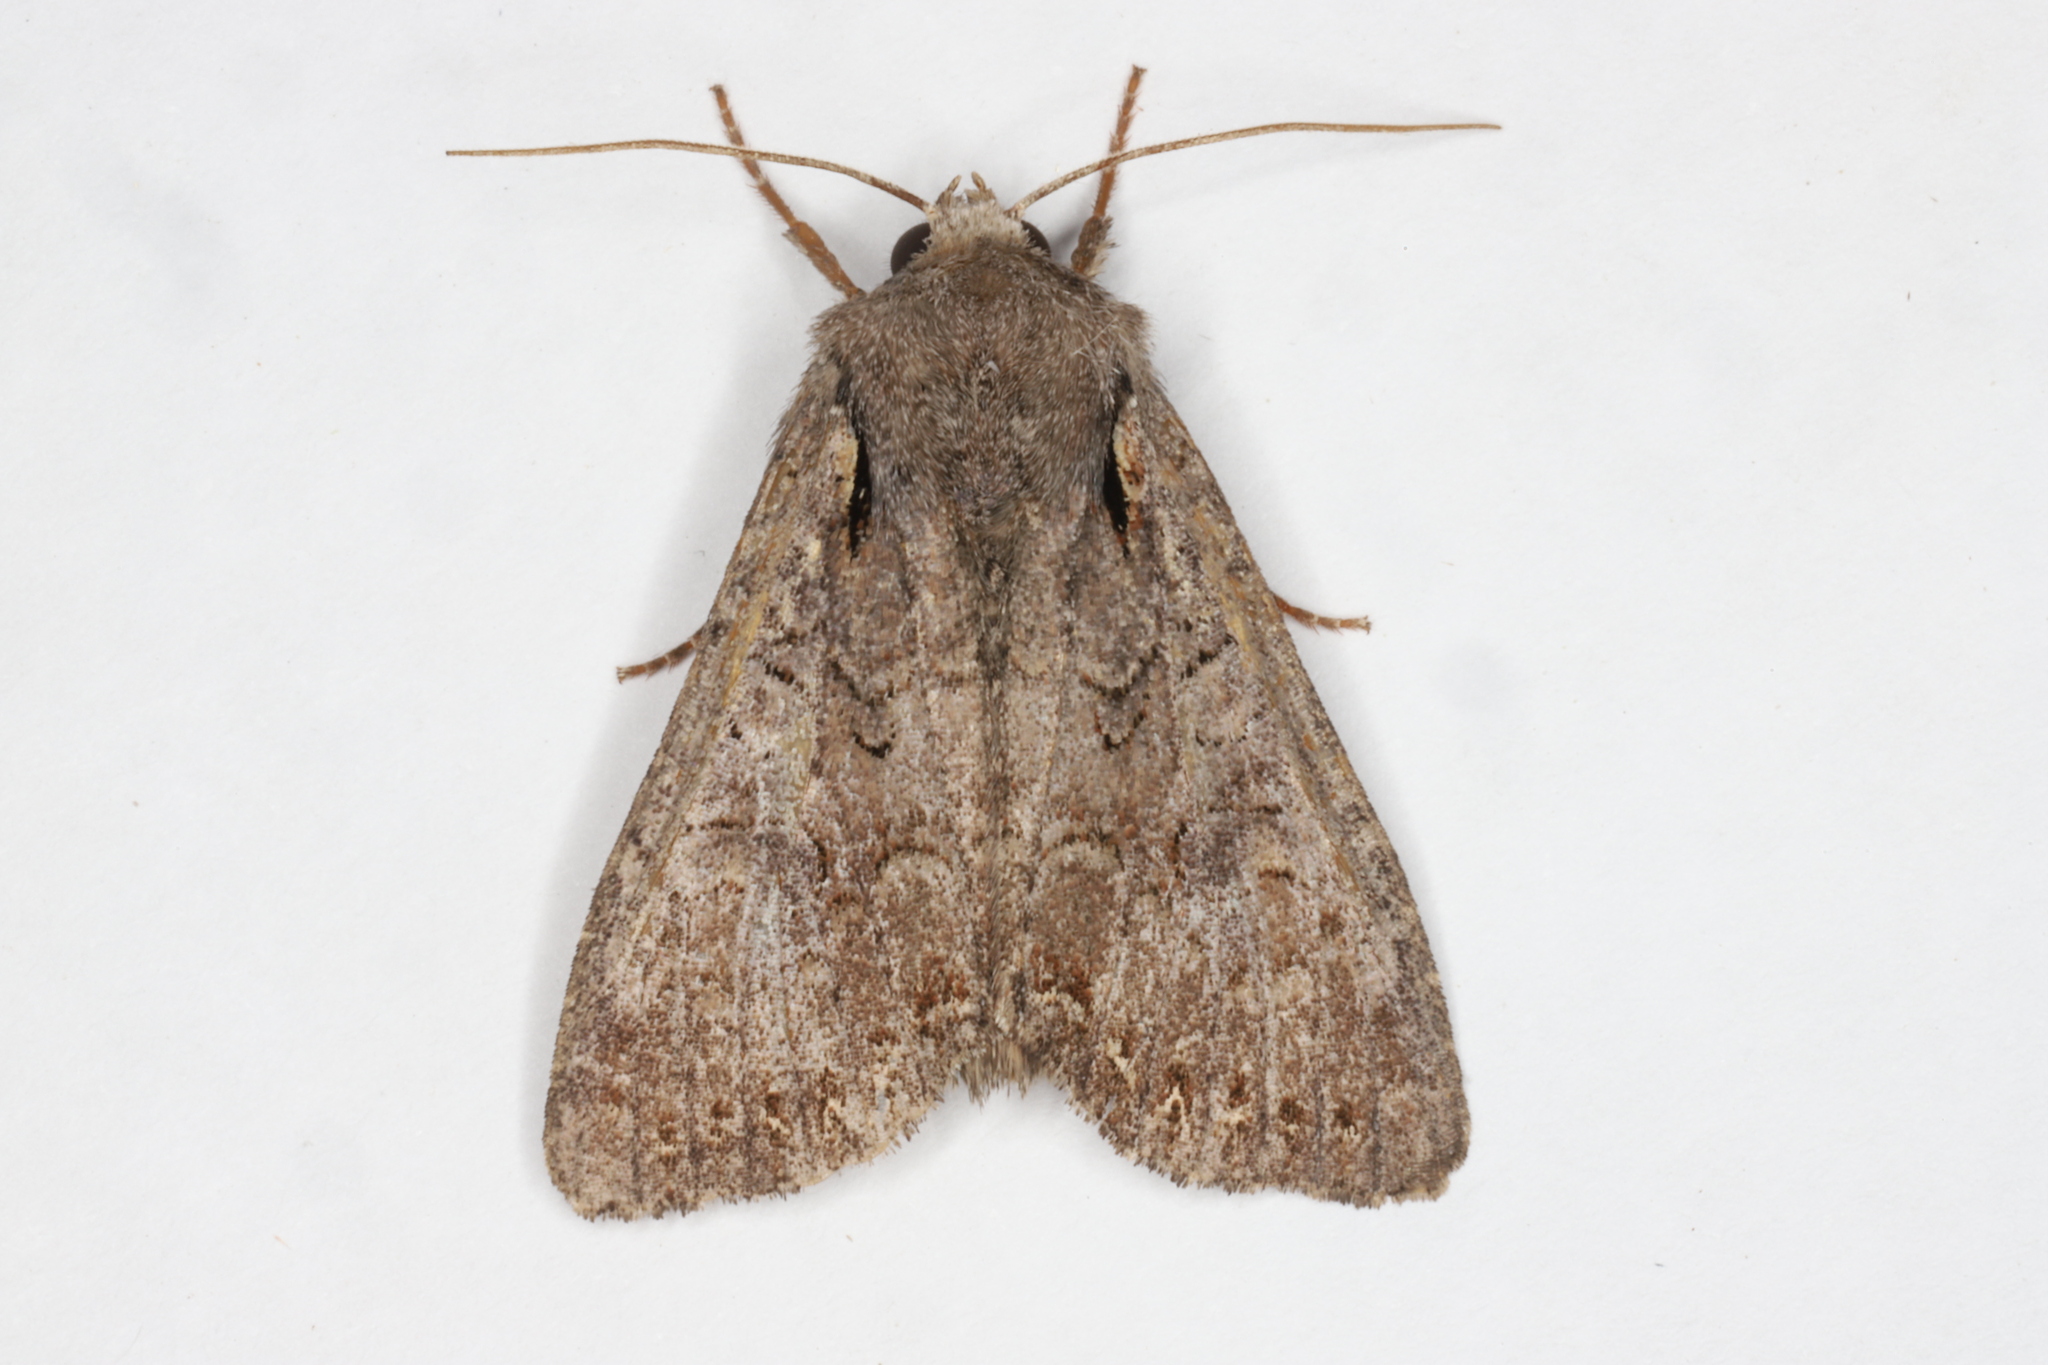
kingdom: Animalia
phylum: Arthropoda
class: Insecta
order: Lepidoptera
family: Noctuidae
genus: Apamea
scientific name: Apamea sordens
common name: Rustic shoulder-knot
